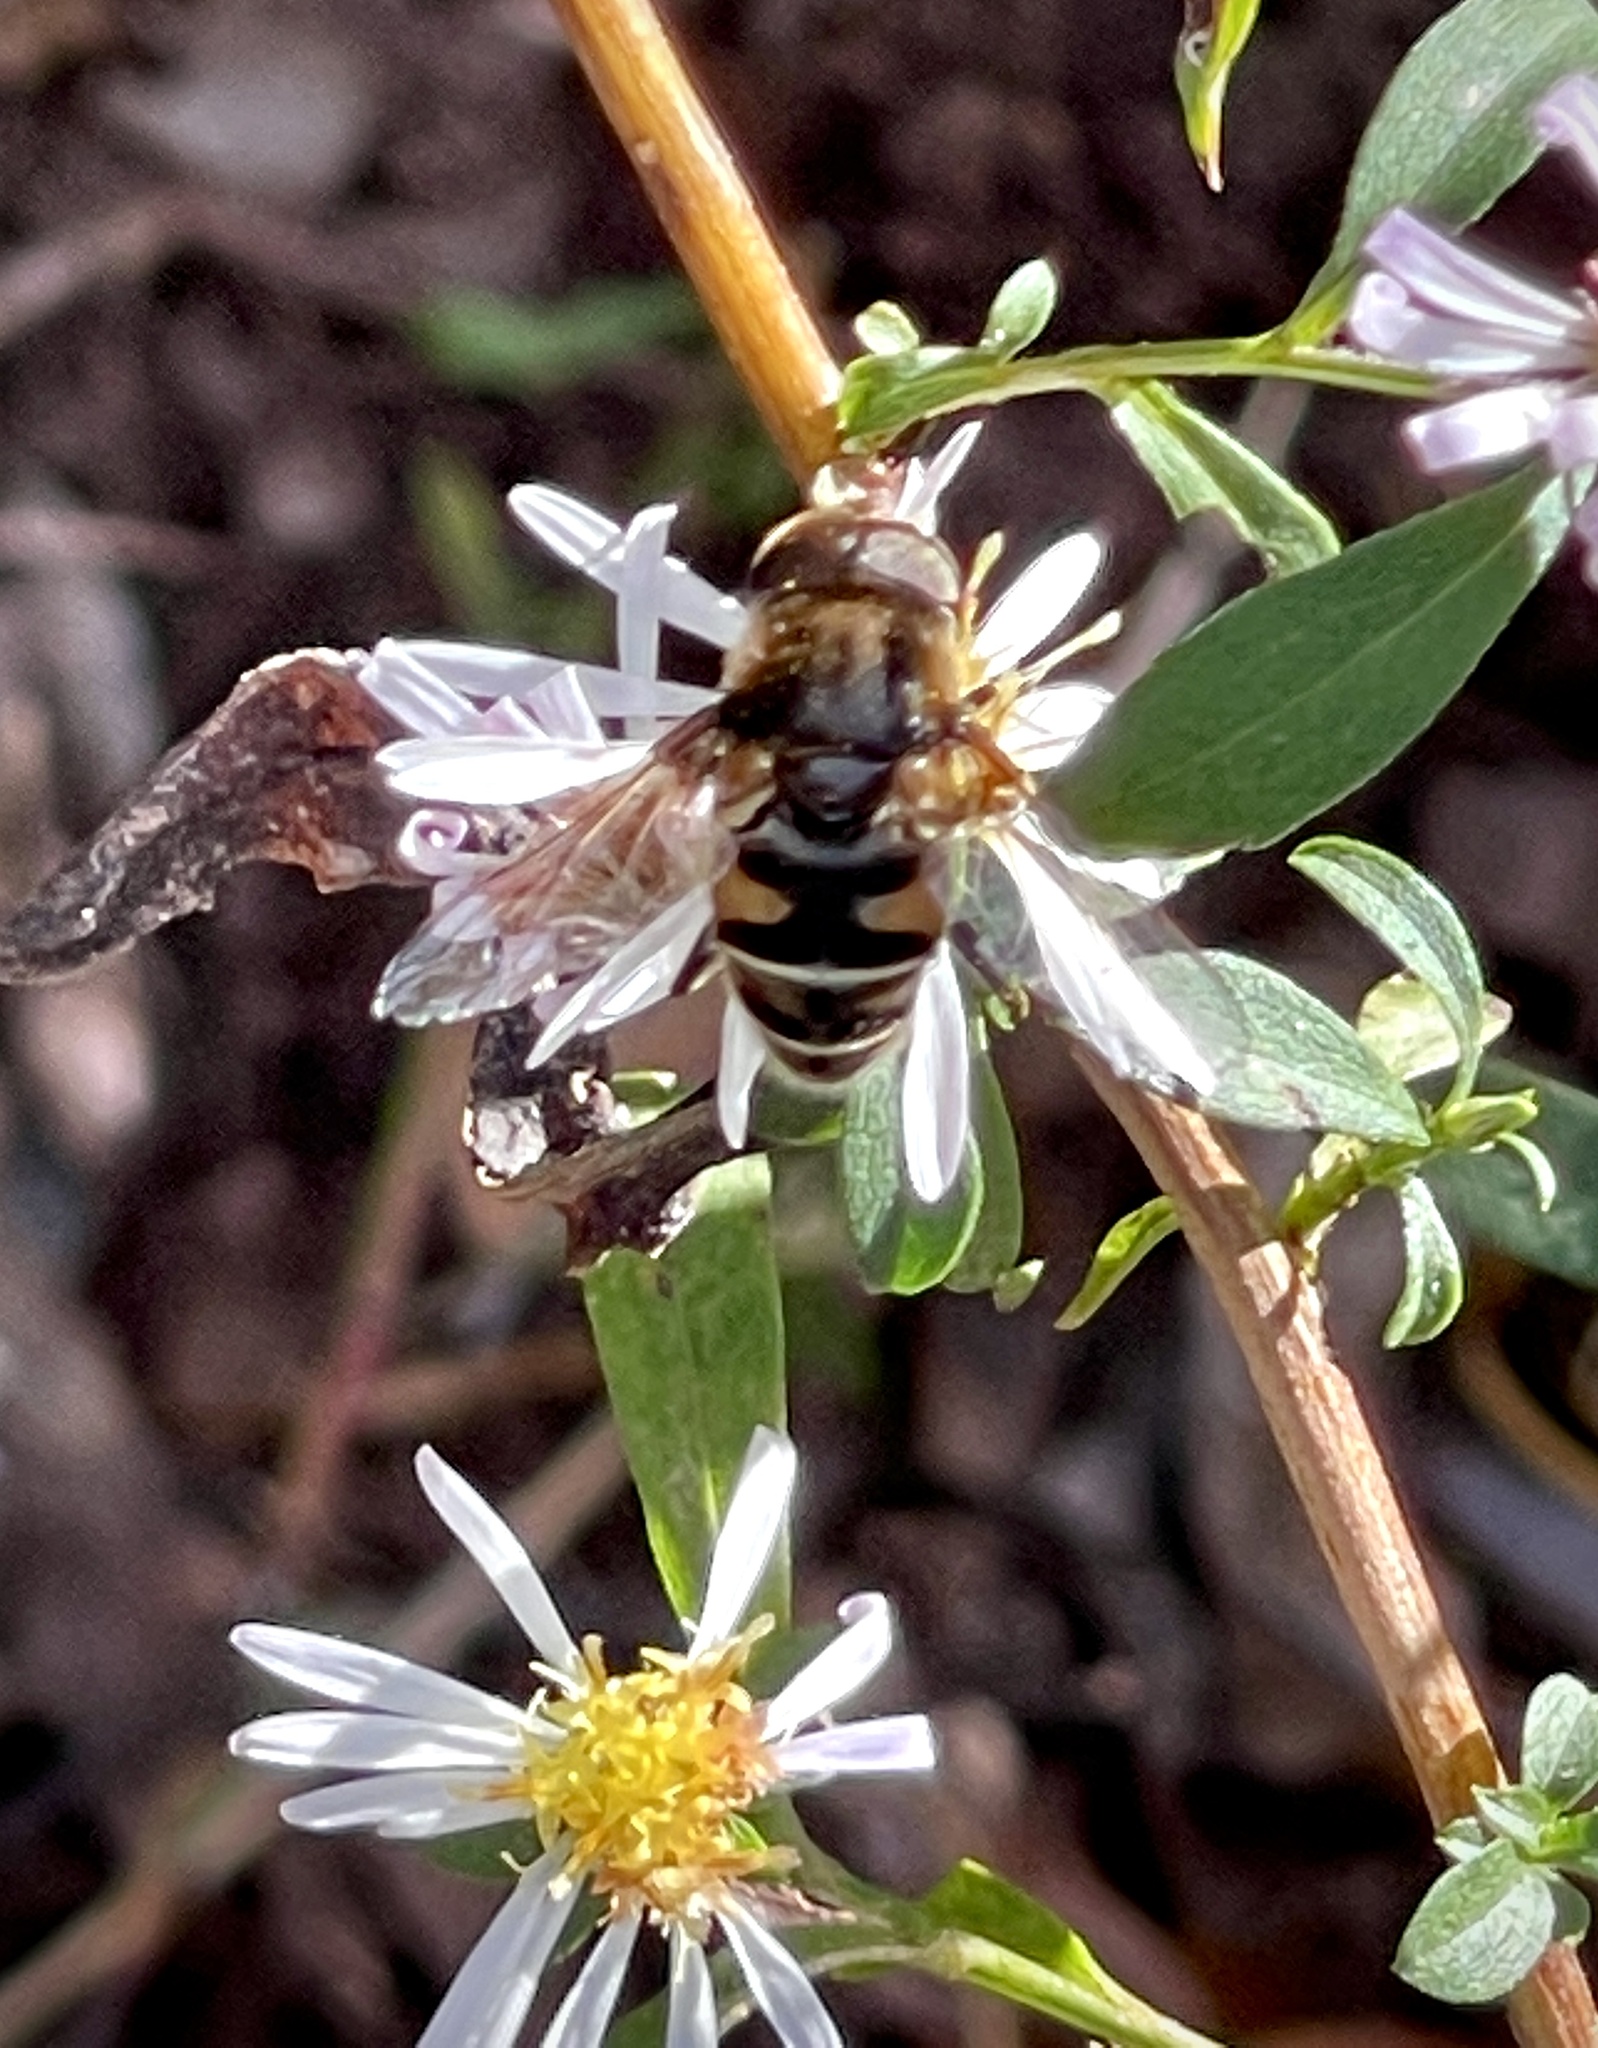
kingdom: Animalia
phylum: Arthropoda
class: Insecta
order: Diptera
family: Syrphidae
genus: Eristalis
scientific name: Eristalis dimidiata
